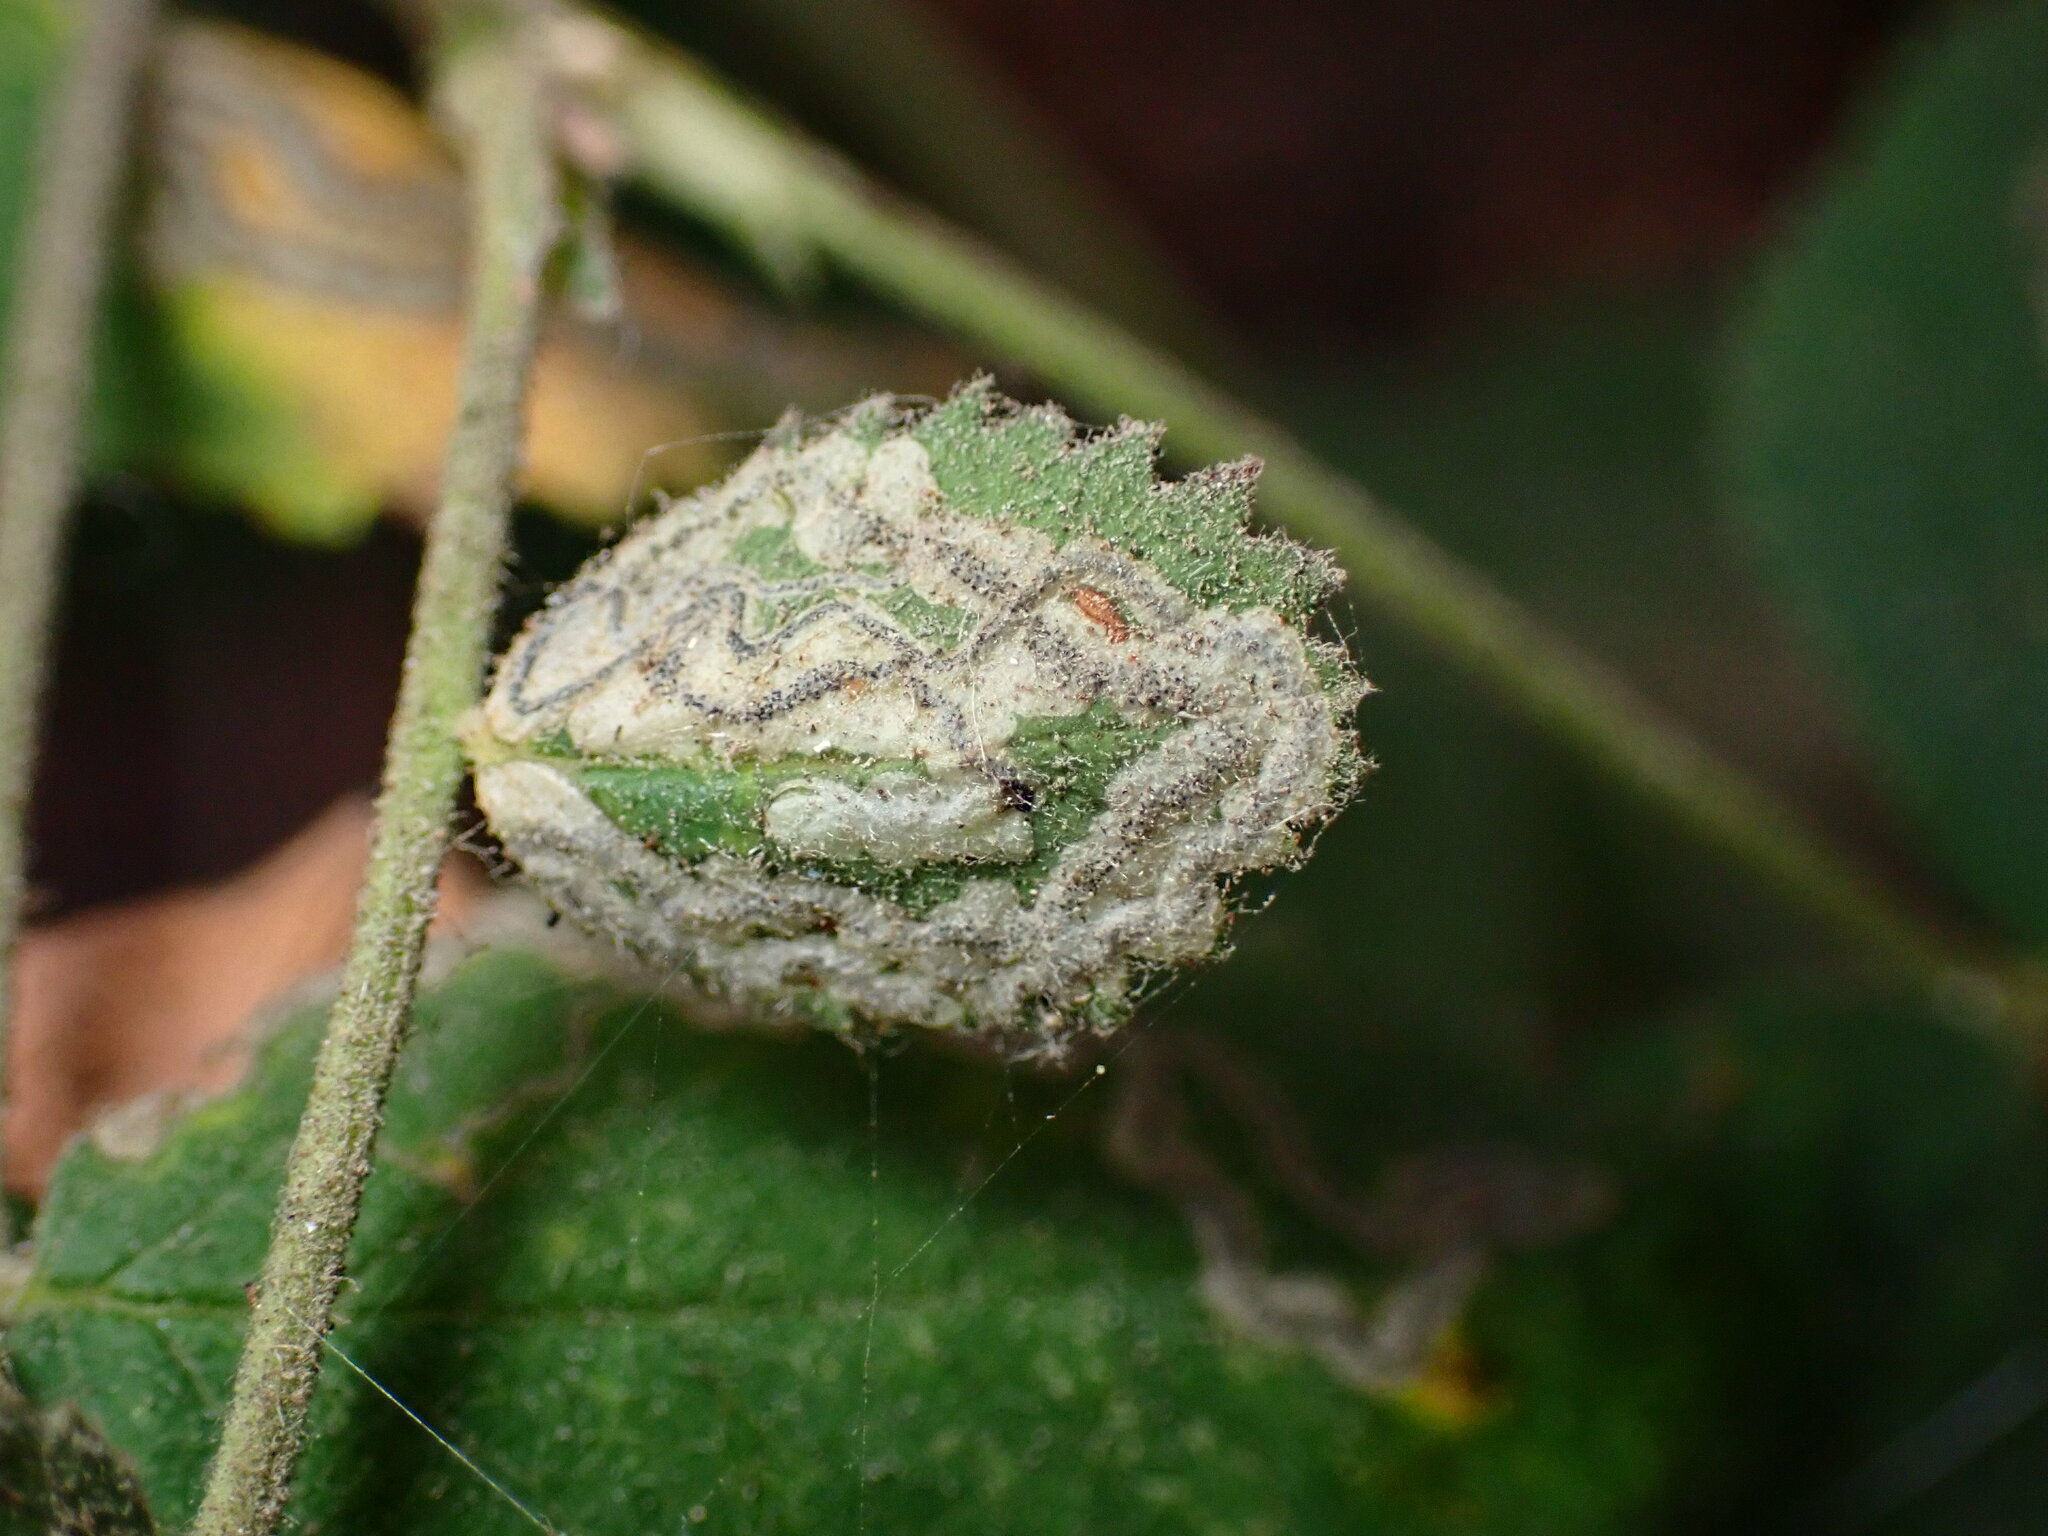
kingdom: Animalia
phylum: Arthropoda
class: Insecta
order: Lepidoptera
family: Nepticulidae
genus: Stigmella
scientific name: Stigmella centifoliella
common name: Narrow-barred pigmy
